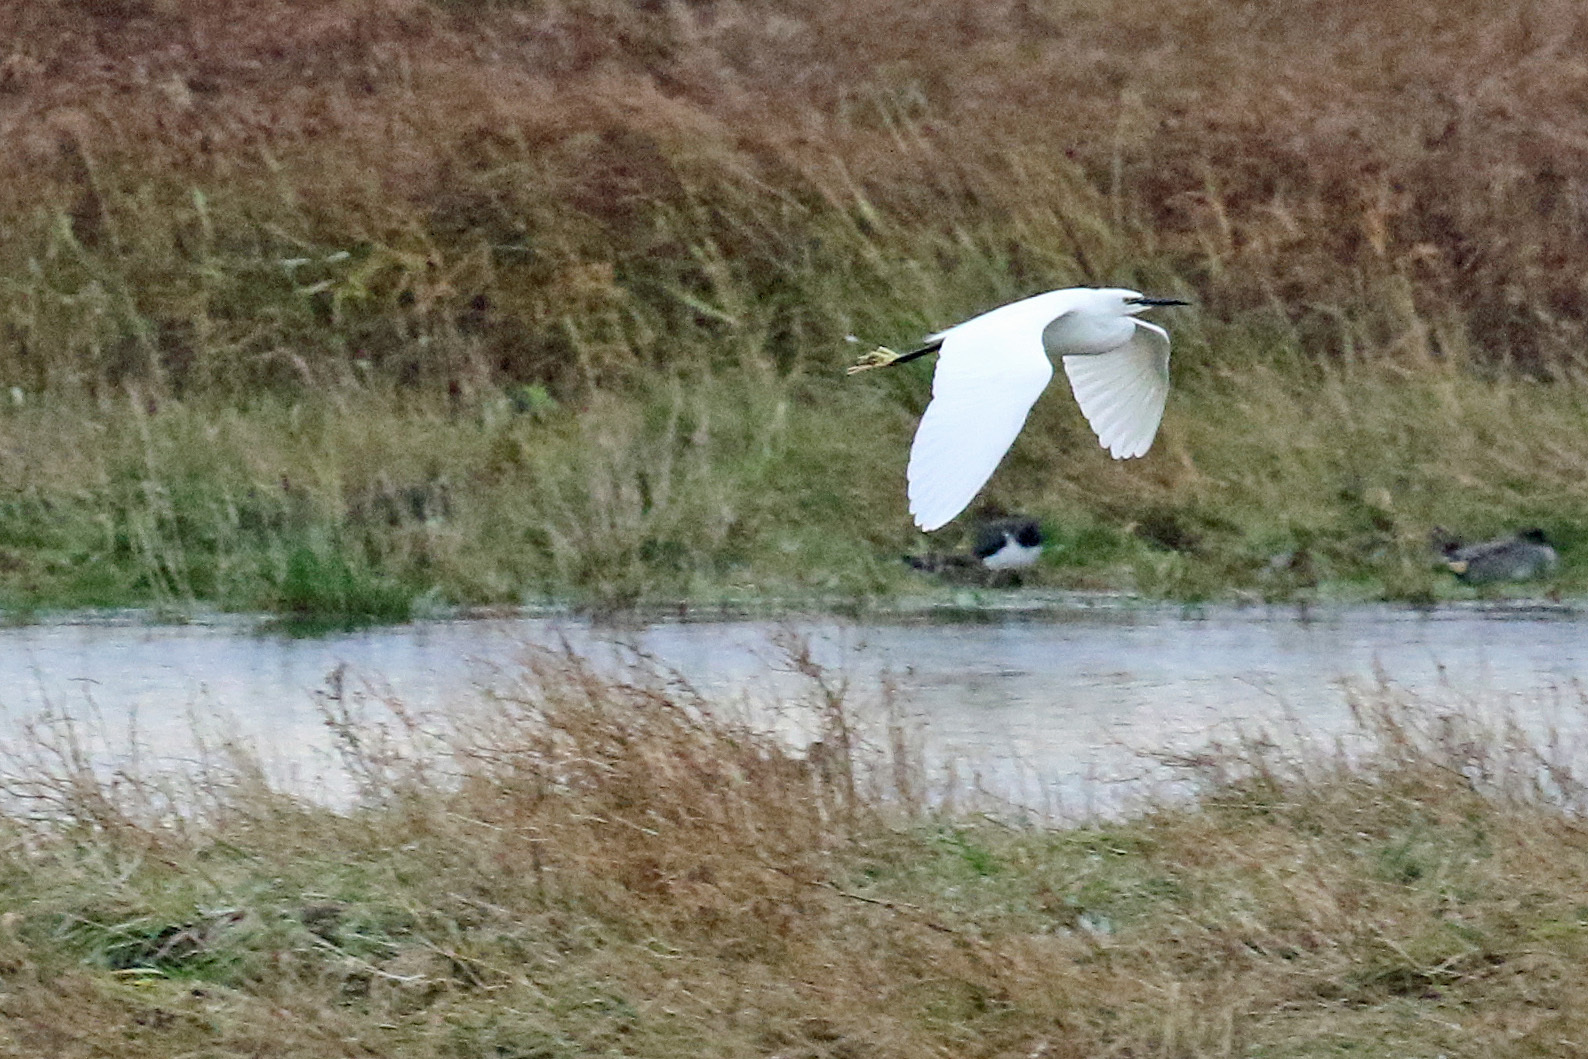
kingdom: Animalia
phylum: Chordata
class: Aves
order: Pelecaniformes
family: Ardeidae
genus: Egretta
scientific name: Egretta garzetta
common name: Little egret
